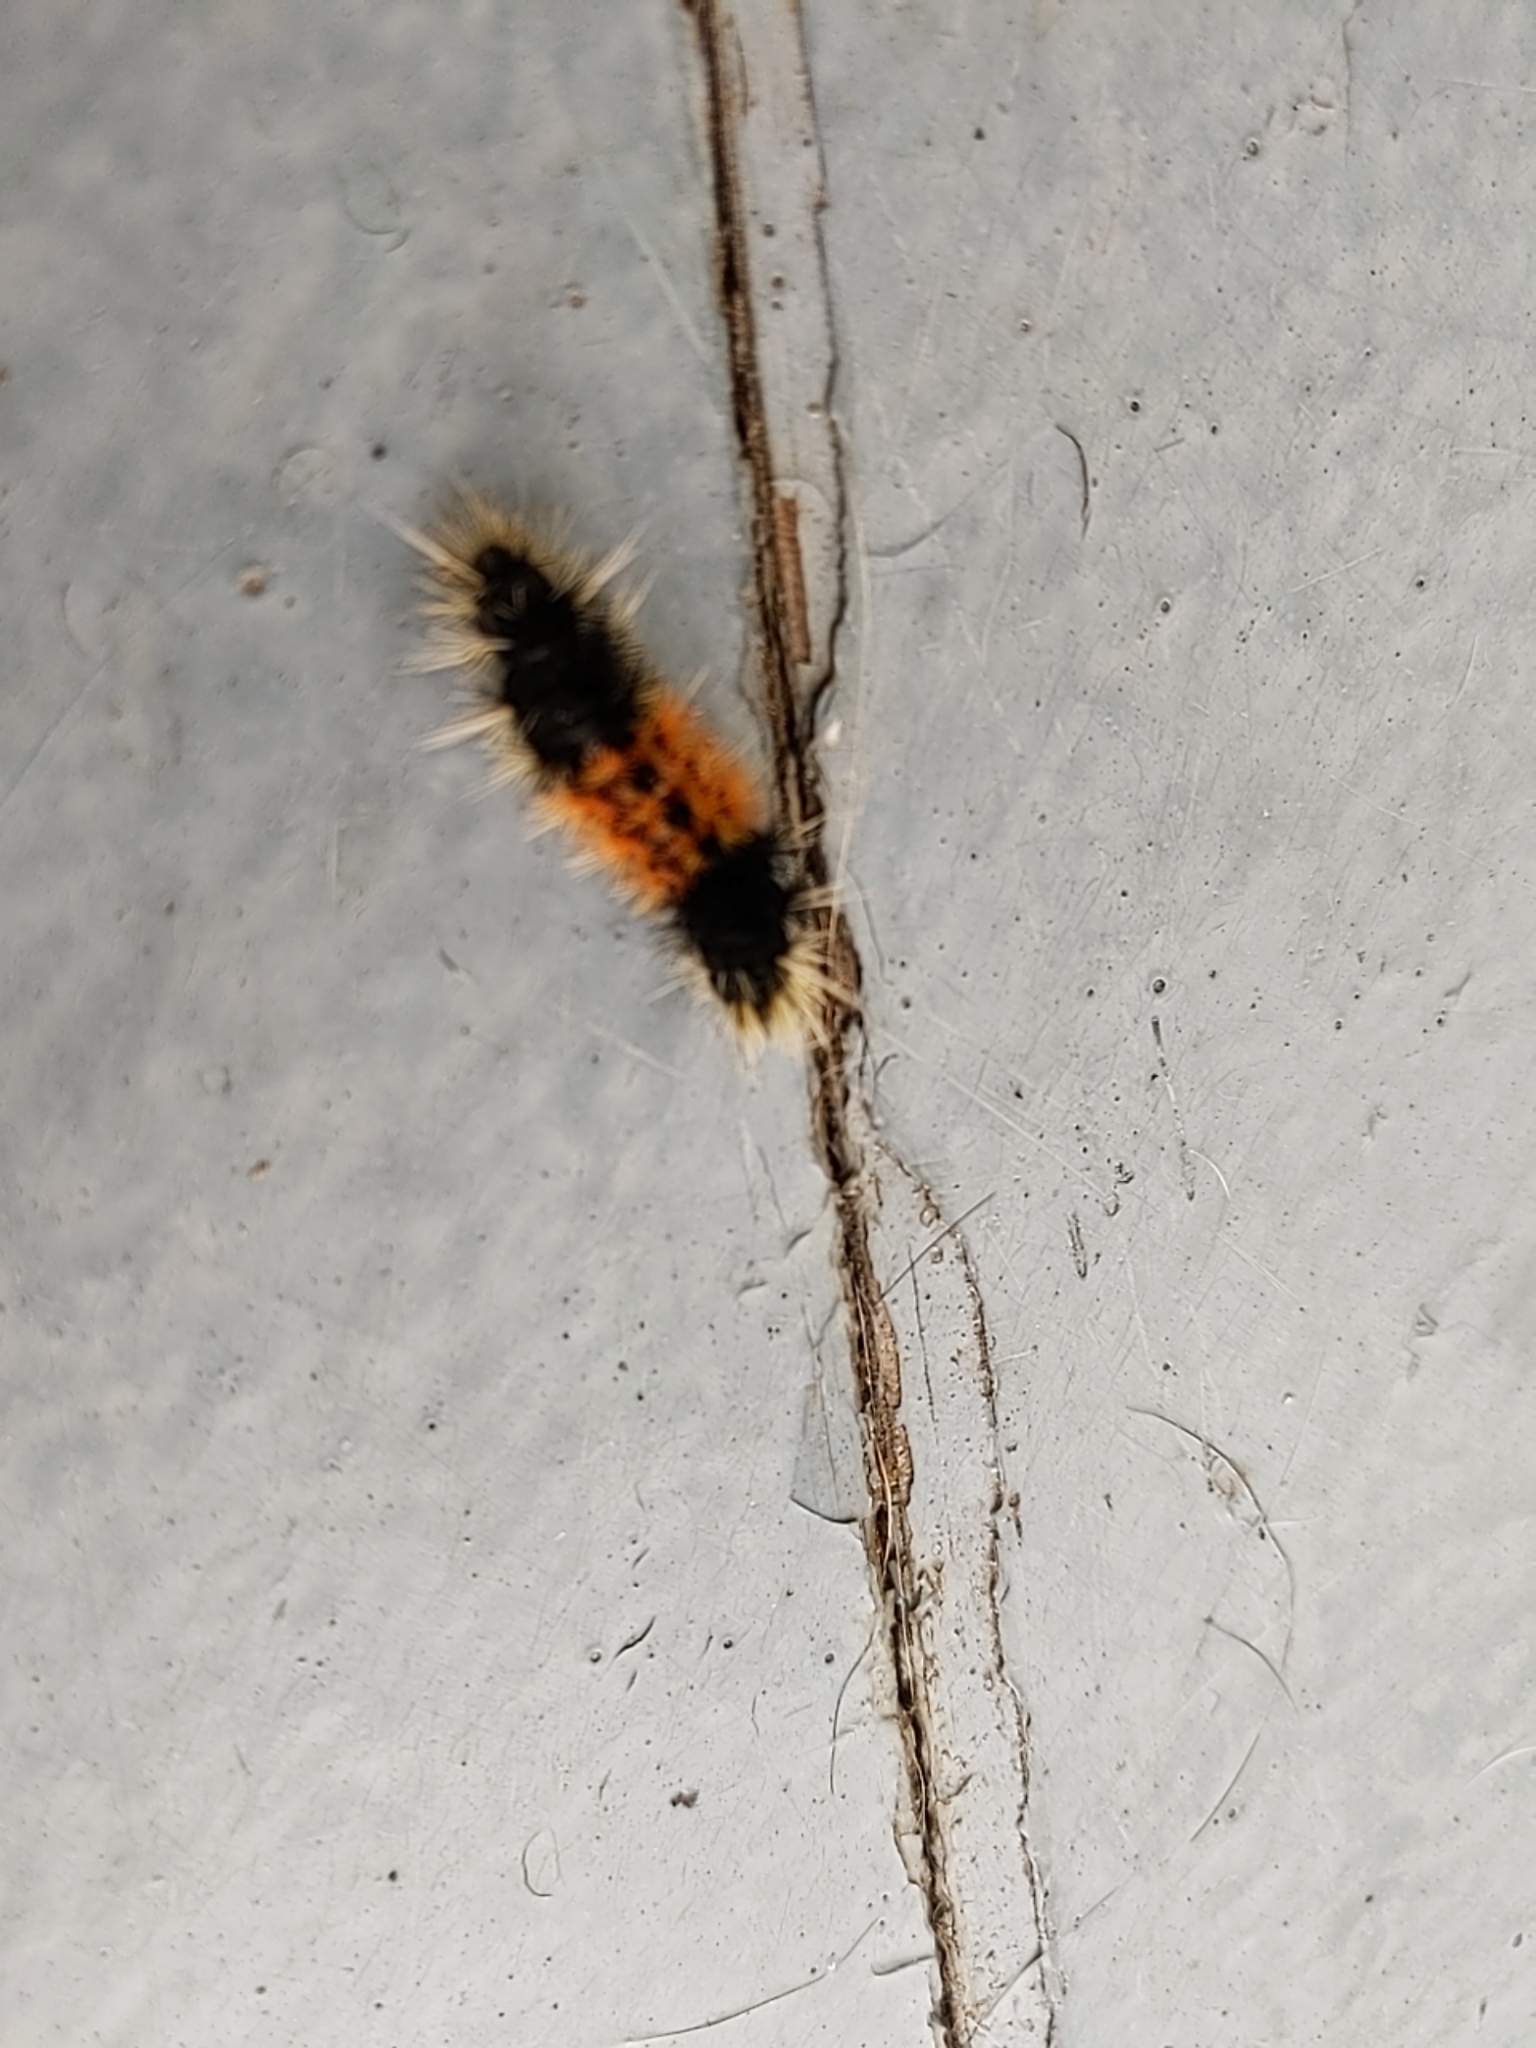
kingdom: Animalia
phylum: Arthropoda
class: Insecta
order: Lepidoptera
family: Erebidae
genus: Lophocampa
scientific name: Lophocampa maculata
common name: Spotted tussock moth
